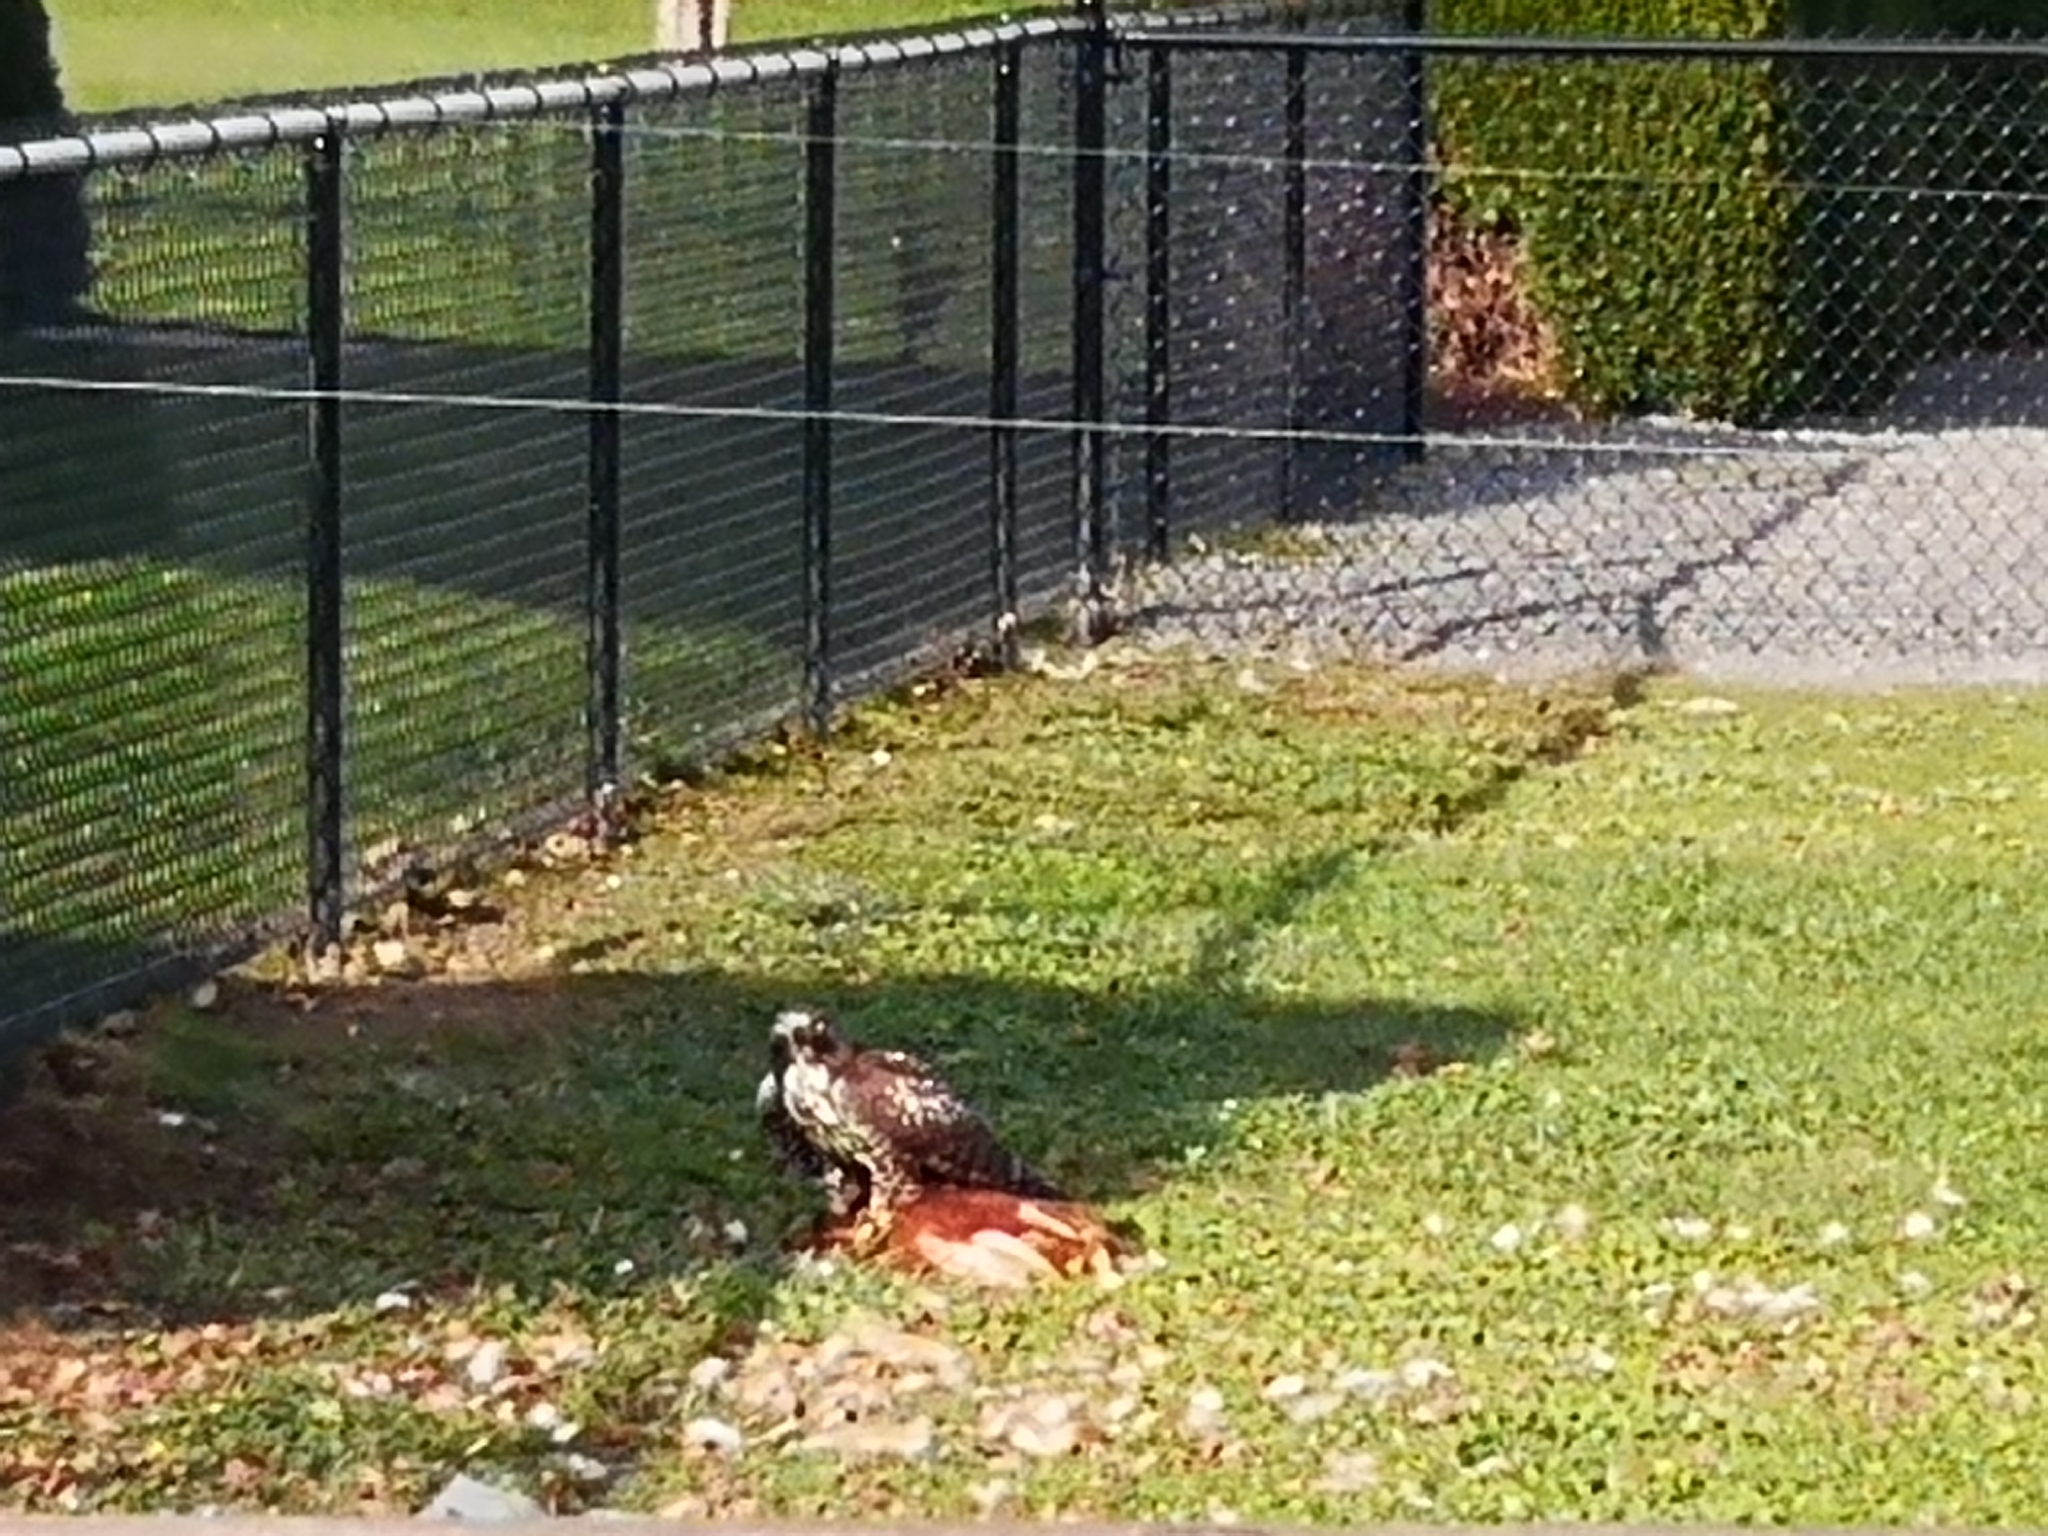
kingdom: Animalia
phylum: Chordata
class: Aves
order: Accipitriformes
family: Accipitridae
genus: Buteo
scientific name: Buteo jamaicensis
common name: Red-tailed hawk
